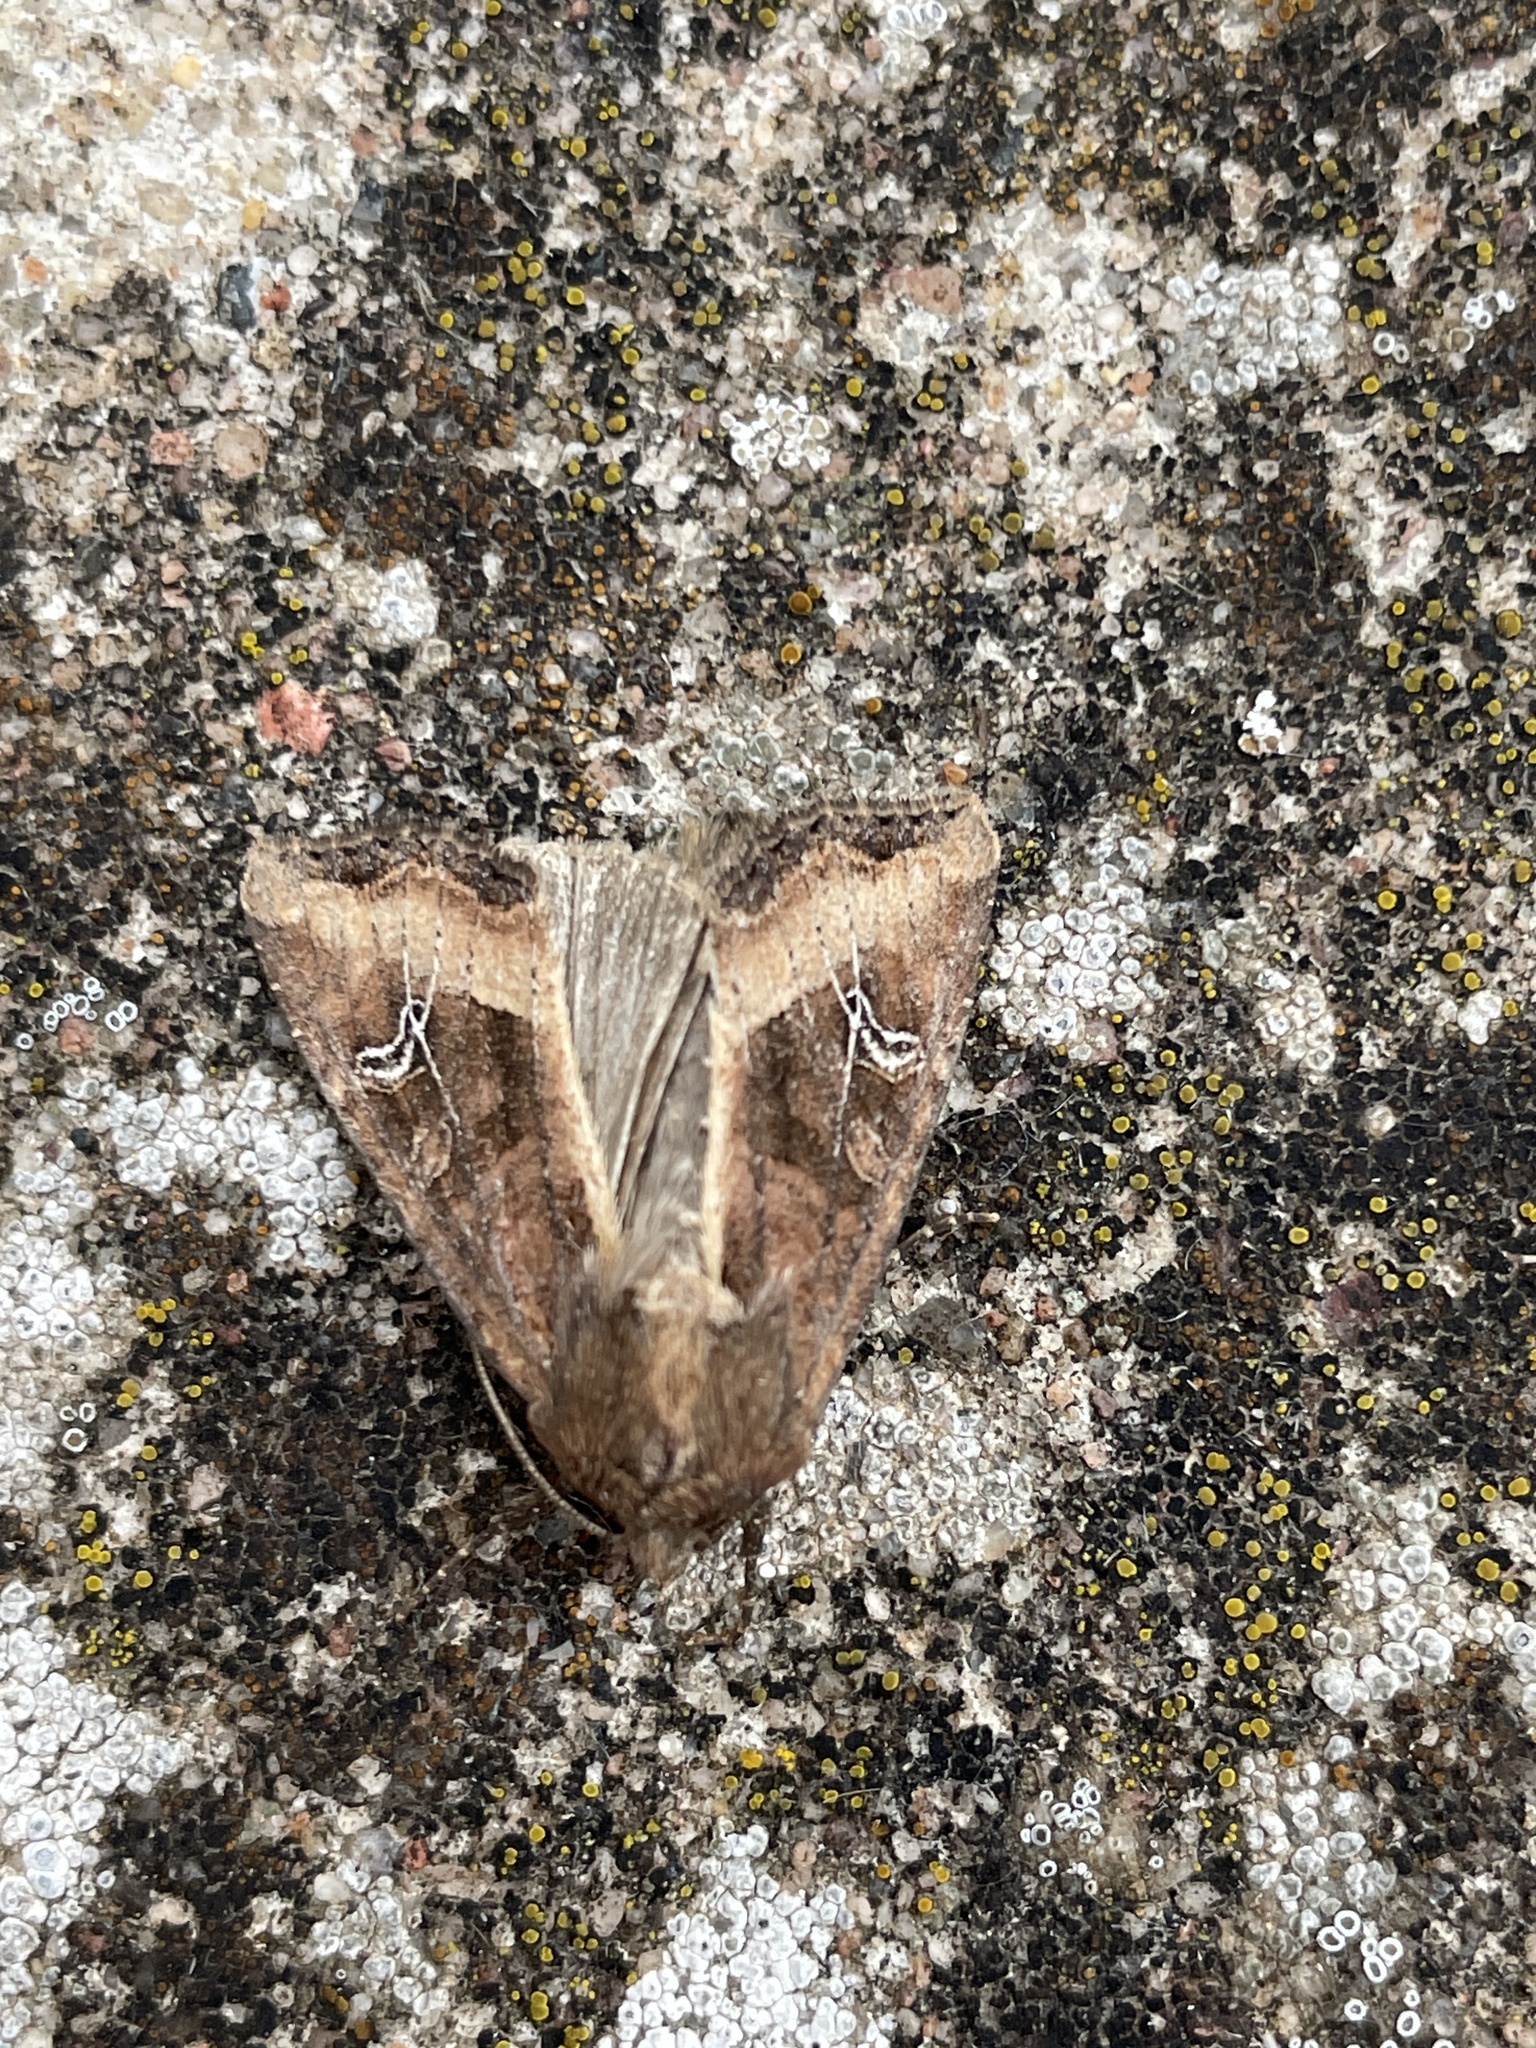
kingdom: Animalia
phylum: Arthropoda
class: Insecta
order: Lepidoptera
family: Noctuidae
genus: Helotropha
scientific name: Helotropha leucostigma
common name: The crescent
